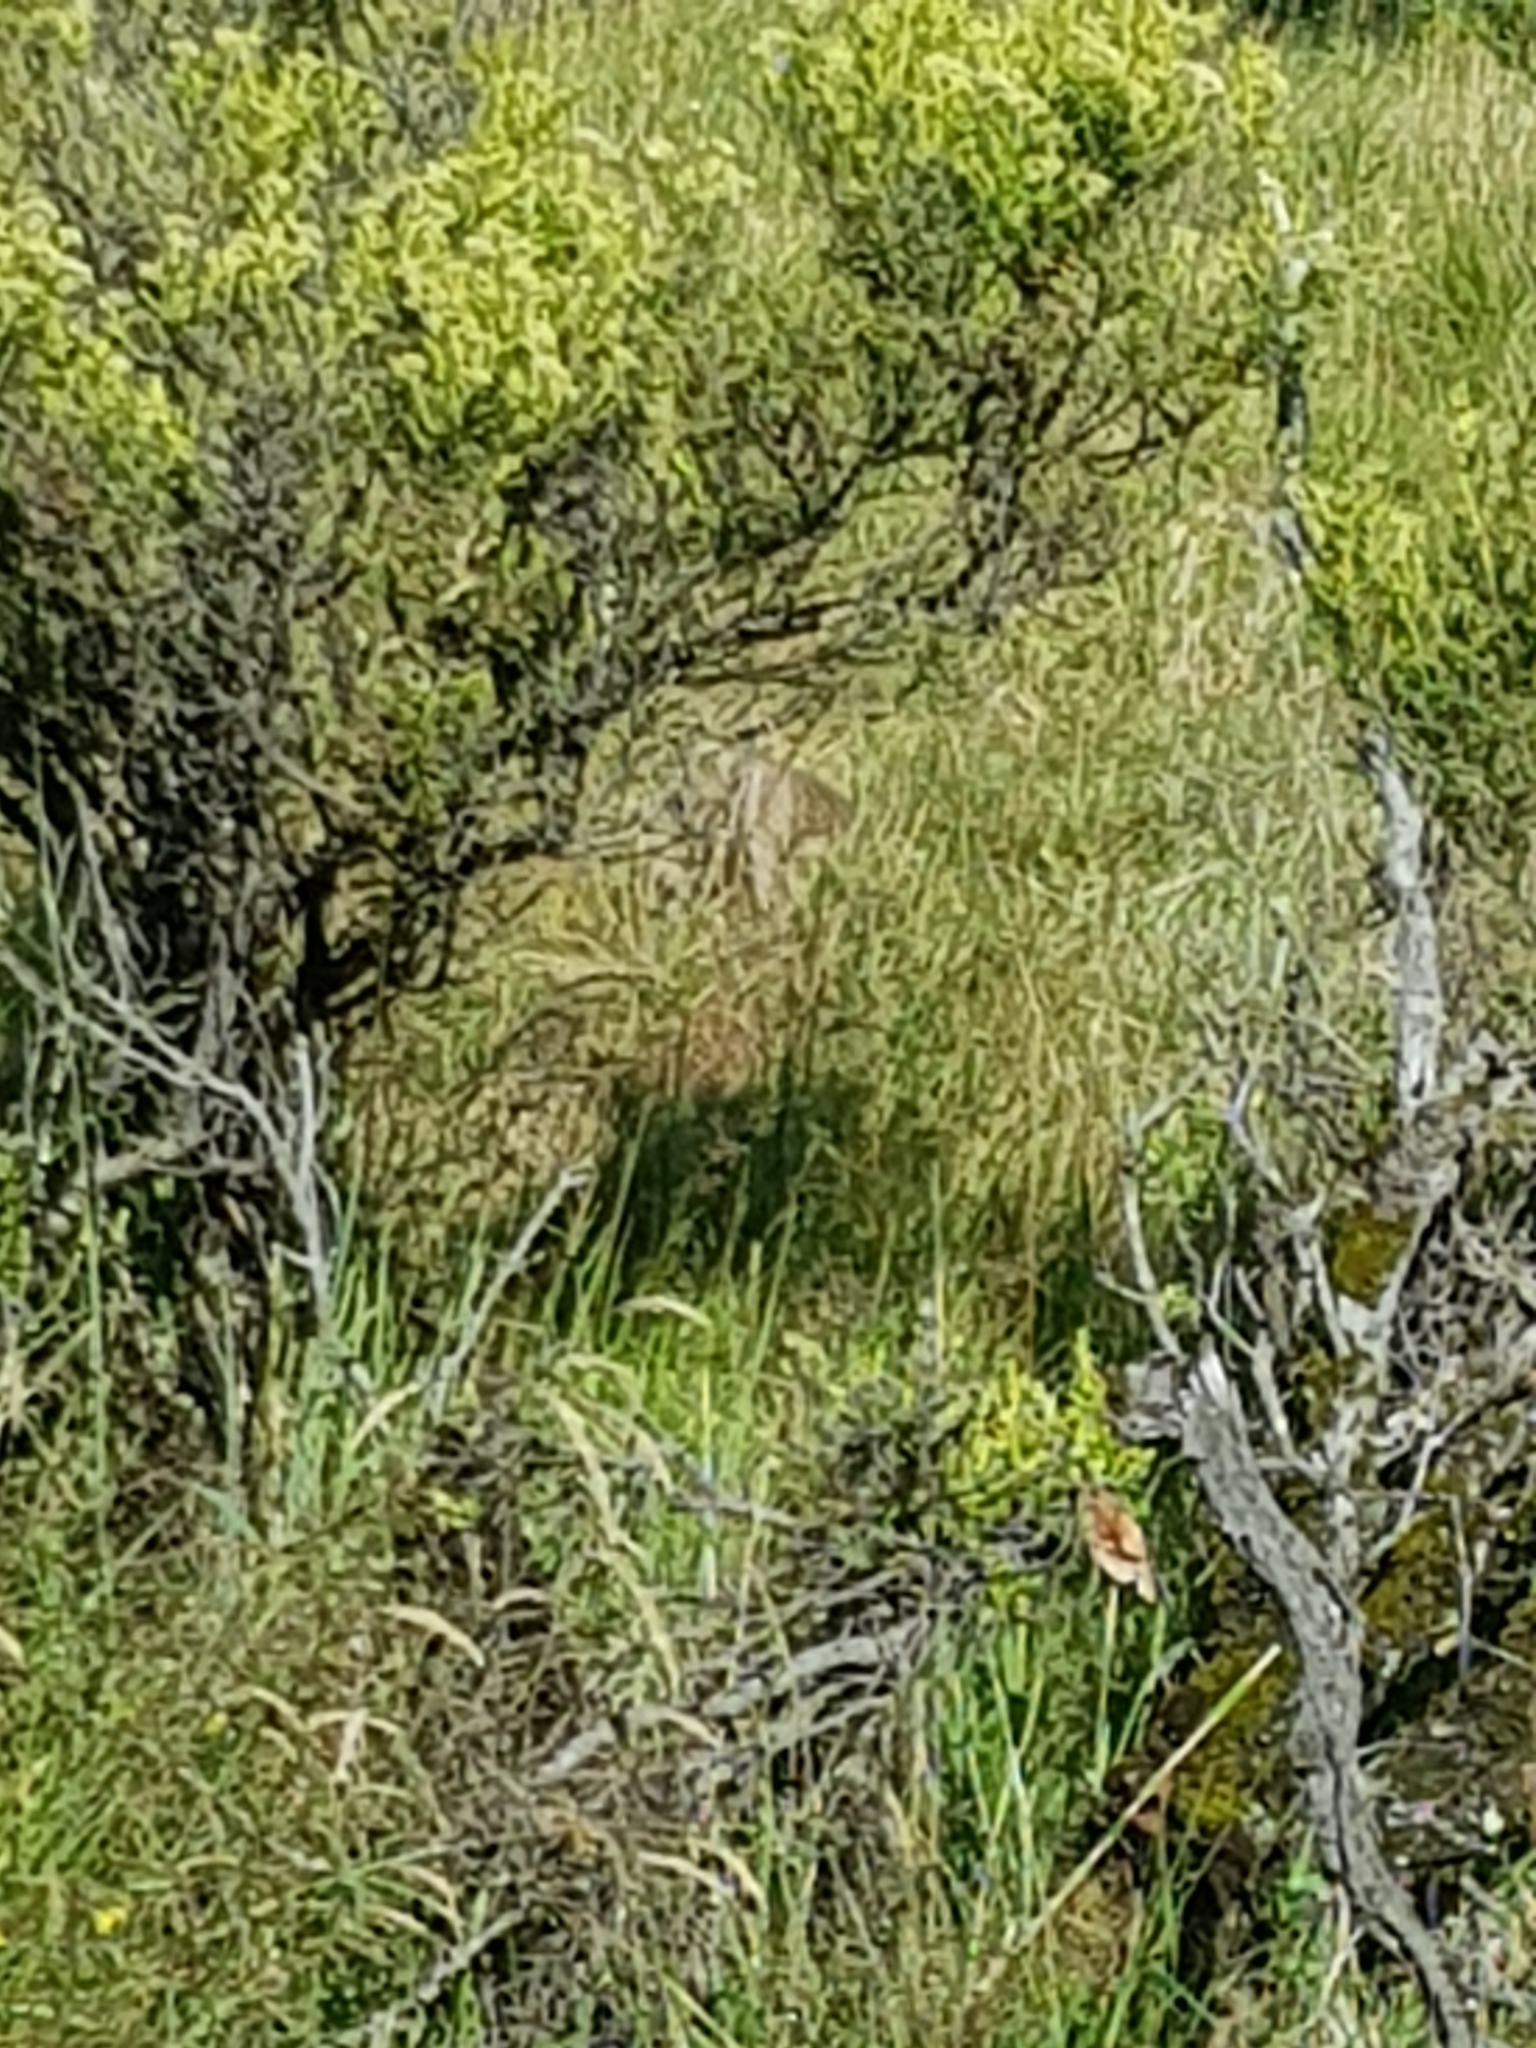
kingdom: Animalia
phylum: Chordata
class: Mammalia
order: Lagomorpha
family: Leporidae
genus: Oryctolagus
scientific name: Oryctolagus cuniculus
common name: European rabbit
